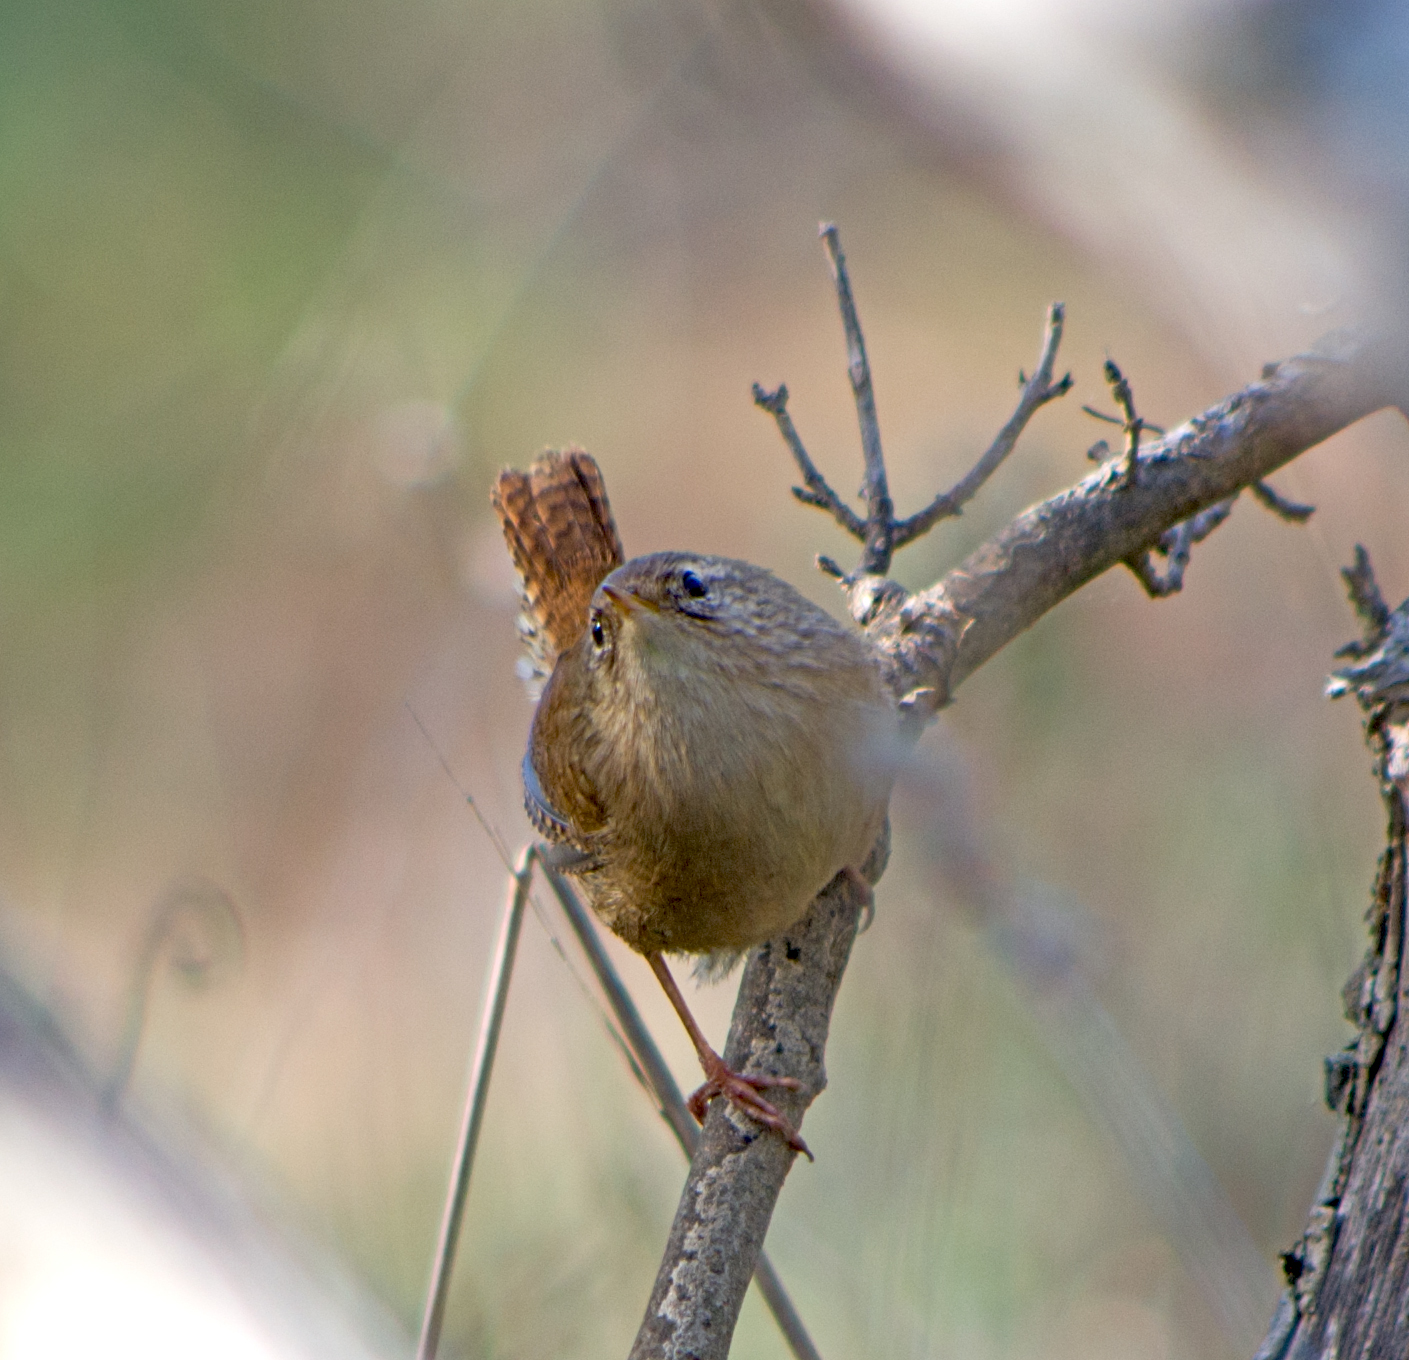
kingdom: Animalia
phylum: Chordata
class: Aves
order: Passeriformes
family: Troglodytidae
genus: Troglodytes
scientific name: Troglodytes troglodytes
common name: Eurasian wren
